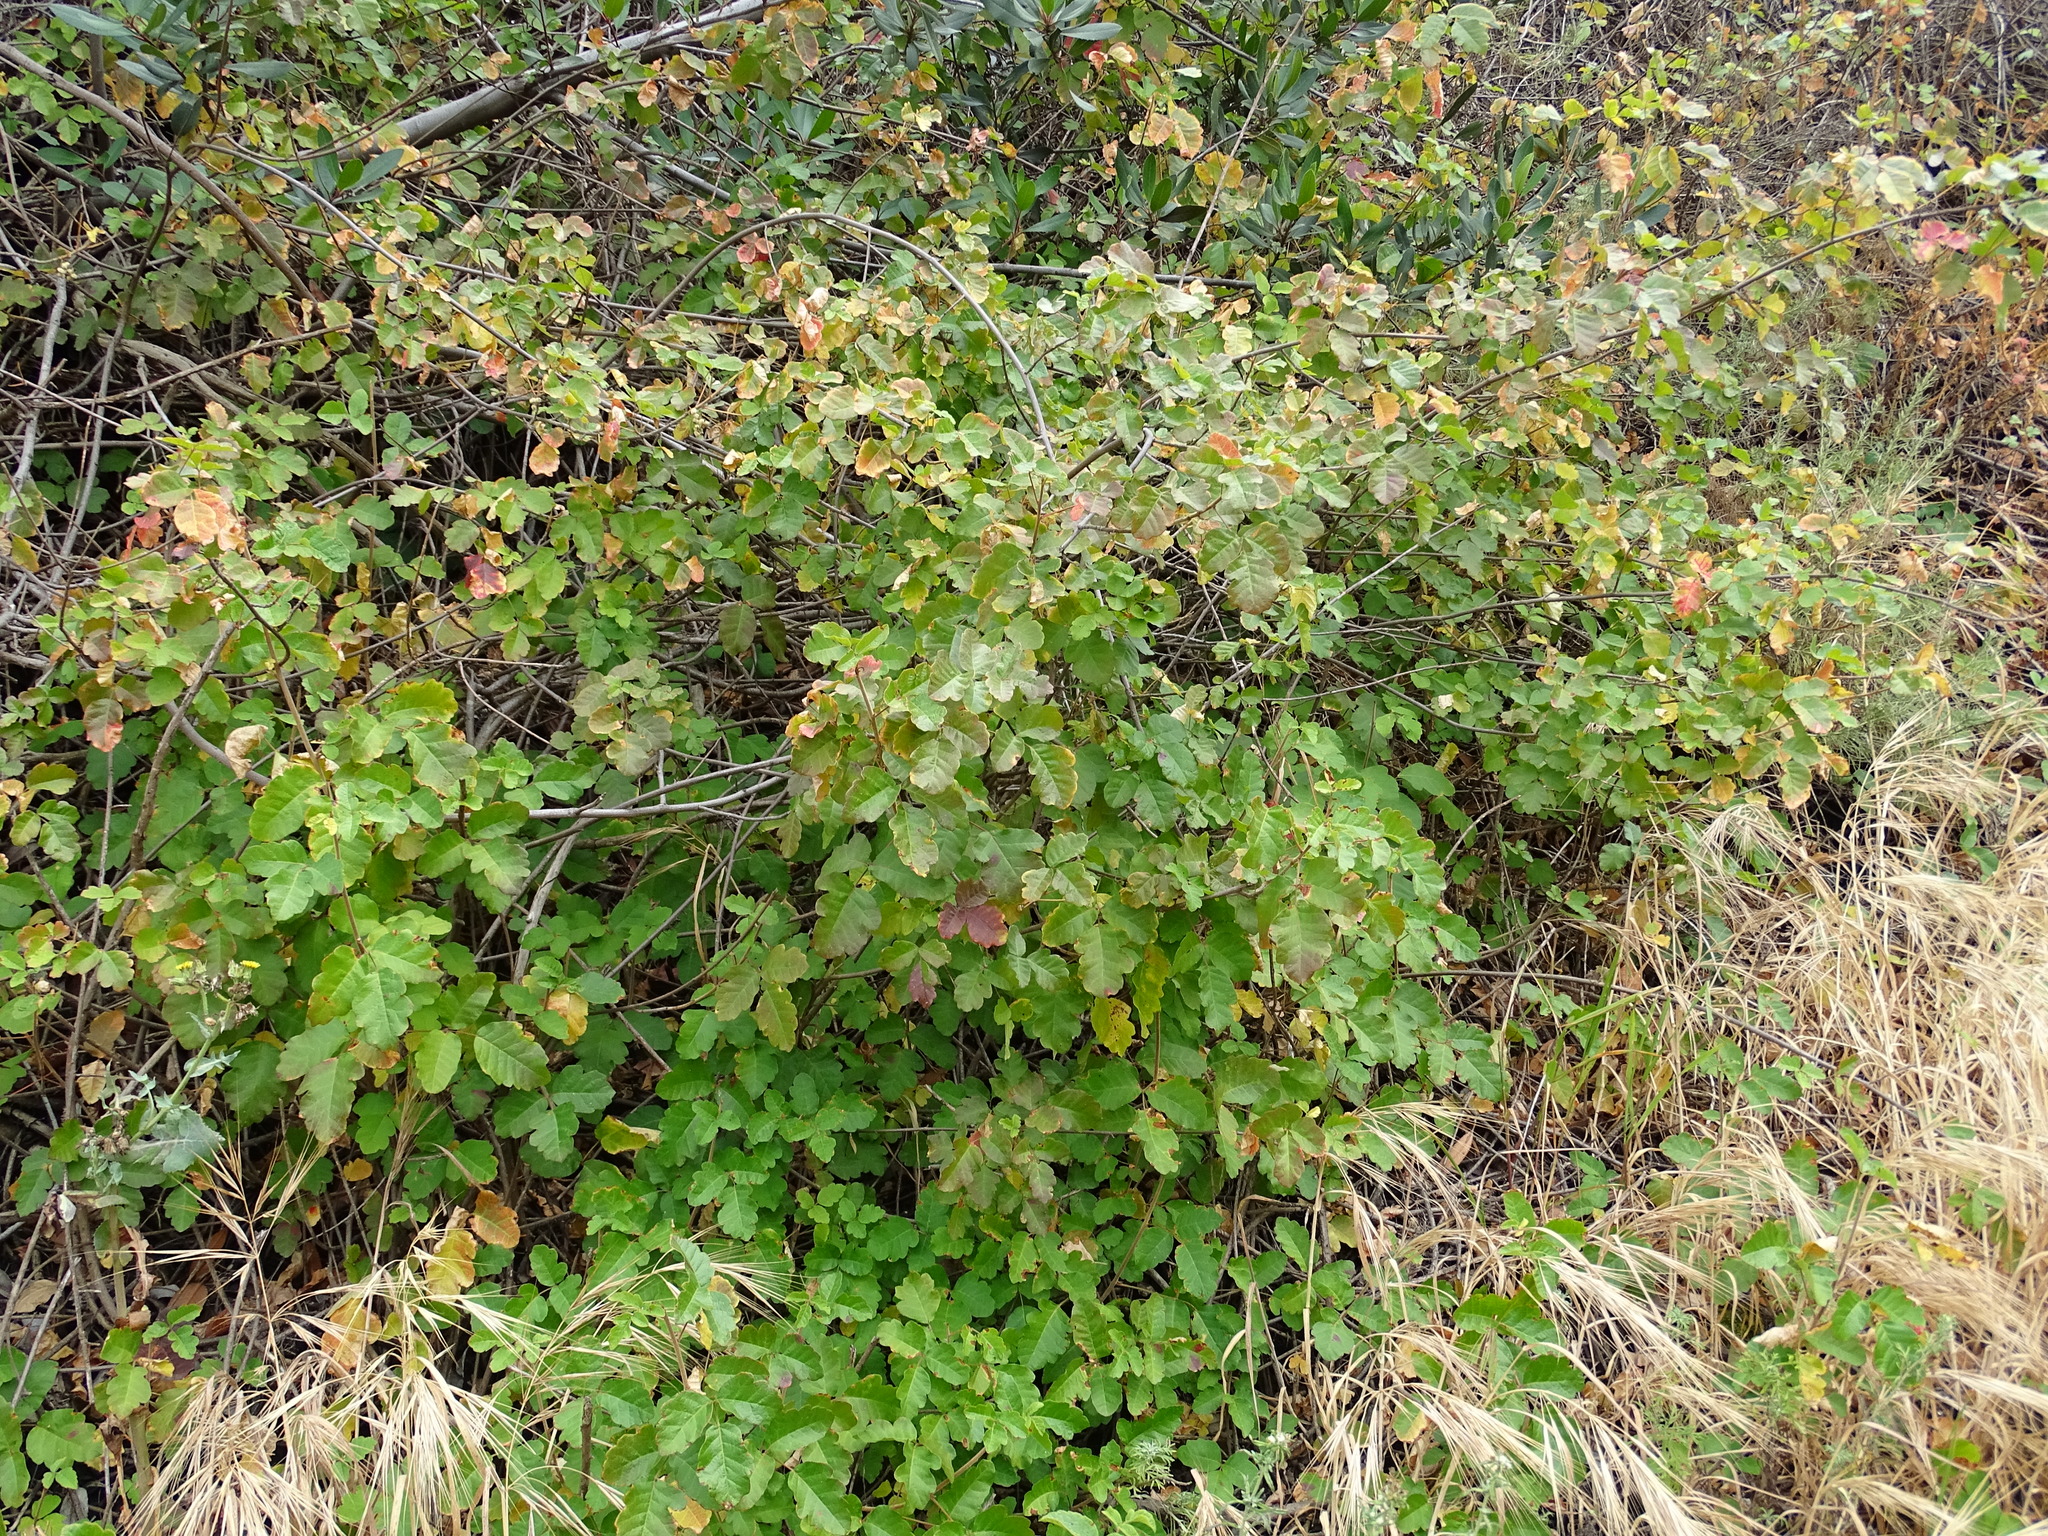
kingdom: Plantae
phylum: Tracheophyta
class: Magnoliopsida
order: Sapindales
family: Anacardiaceae
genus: Toxicodendron
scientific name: Toxicodendron diversilobum
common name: Pacific poison-oak
